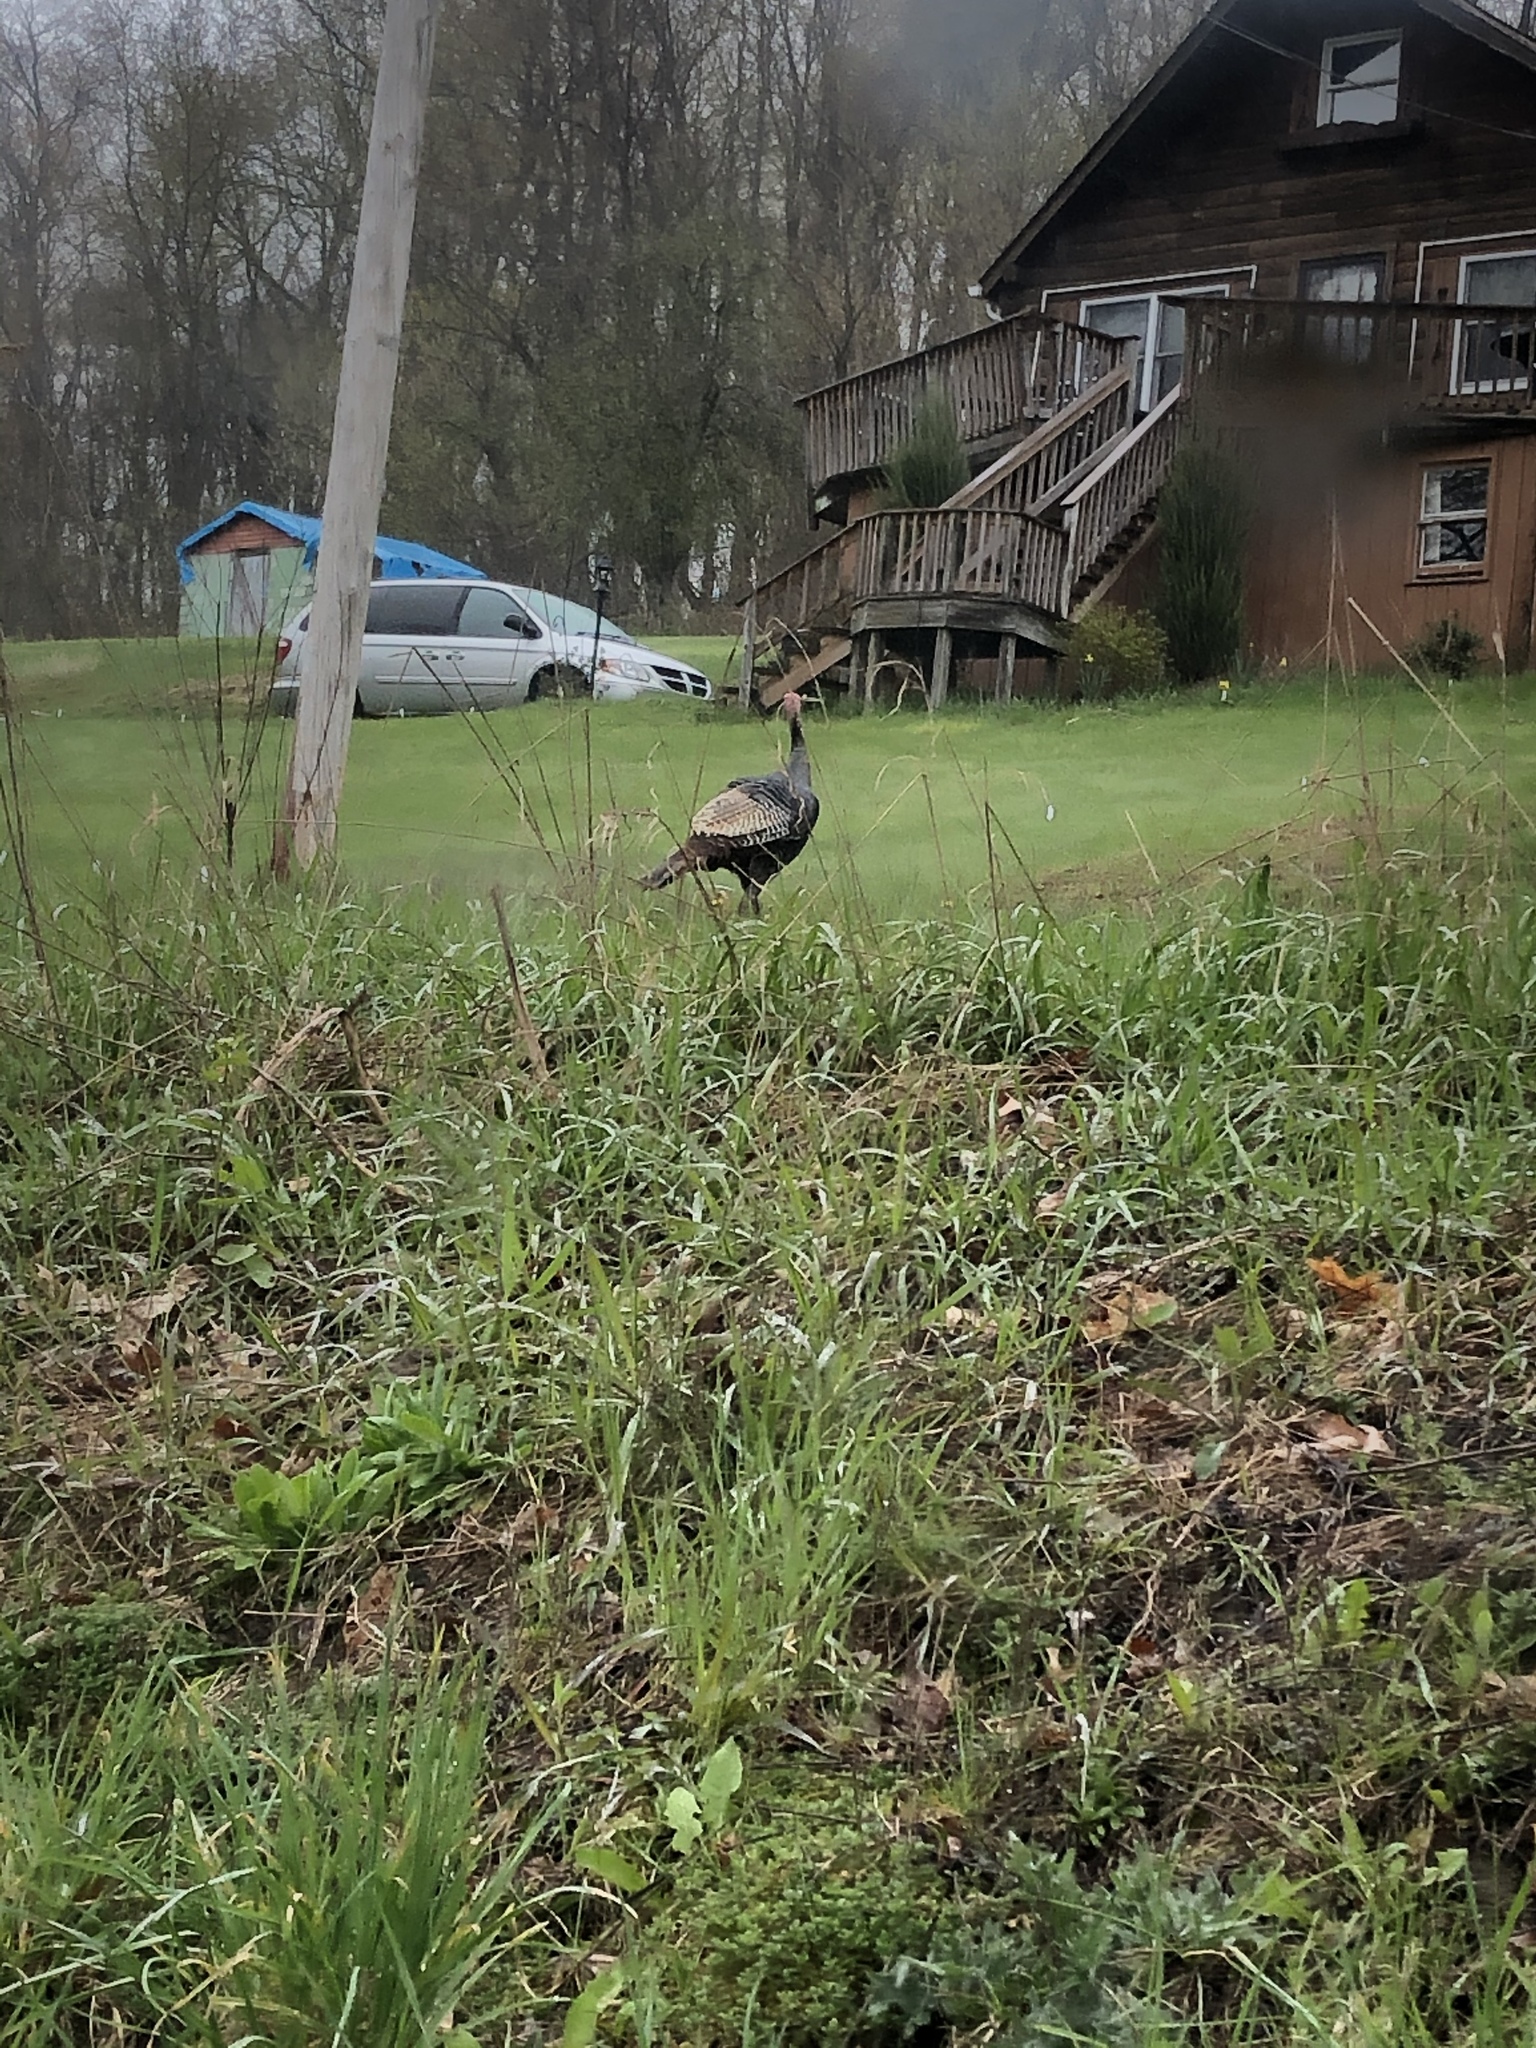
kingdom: Animalia
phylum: Chordata
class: Aves
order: Galliformes
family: Phasianidae
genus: Meleagris
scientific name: Meleagris gallopavo
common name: Wild turkey
